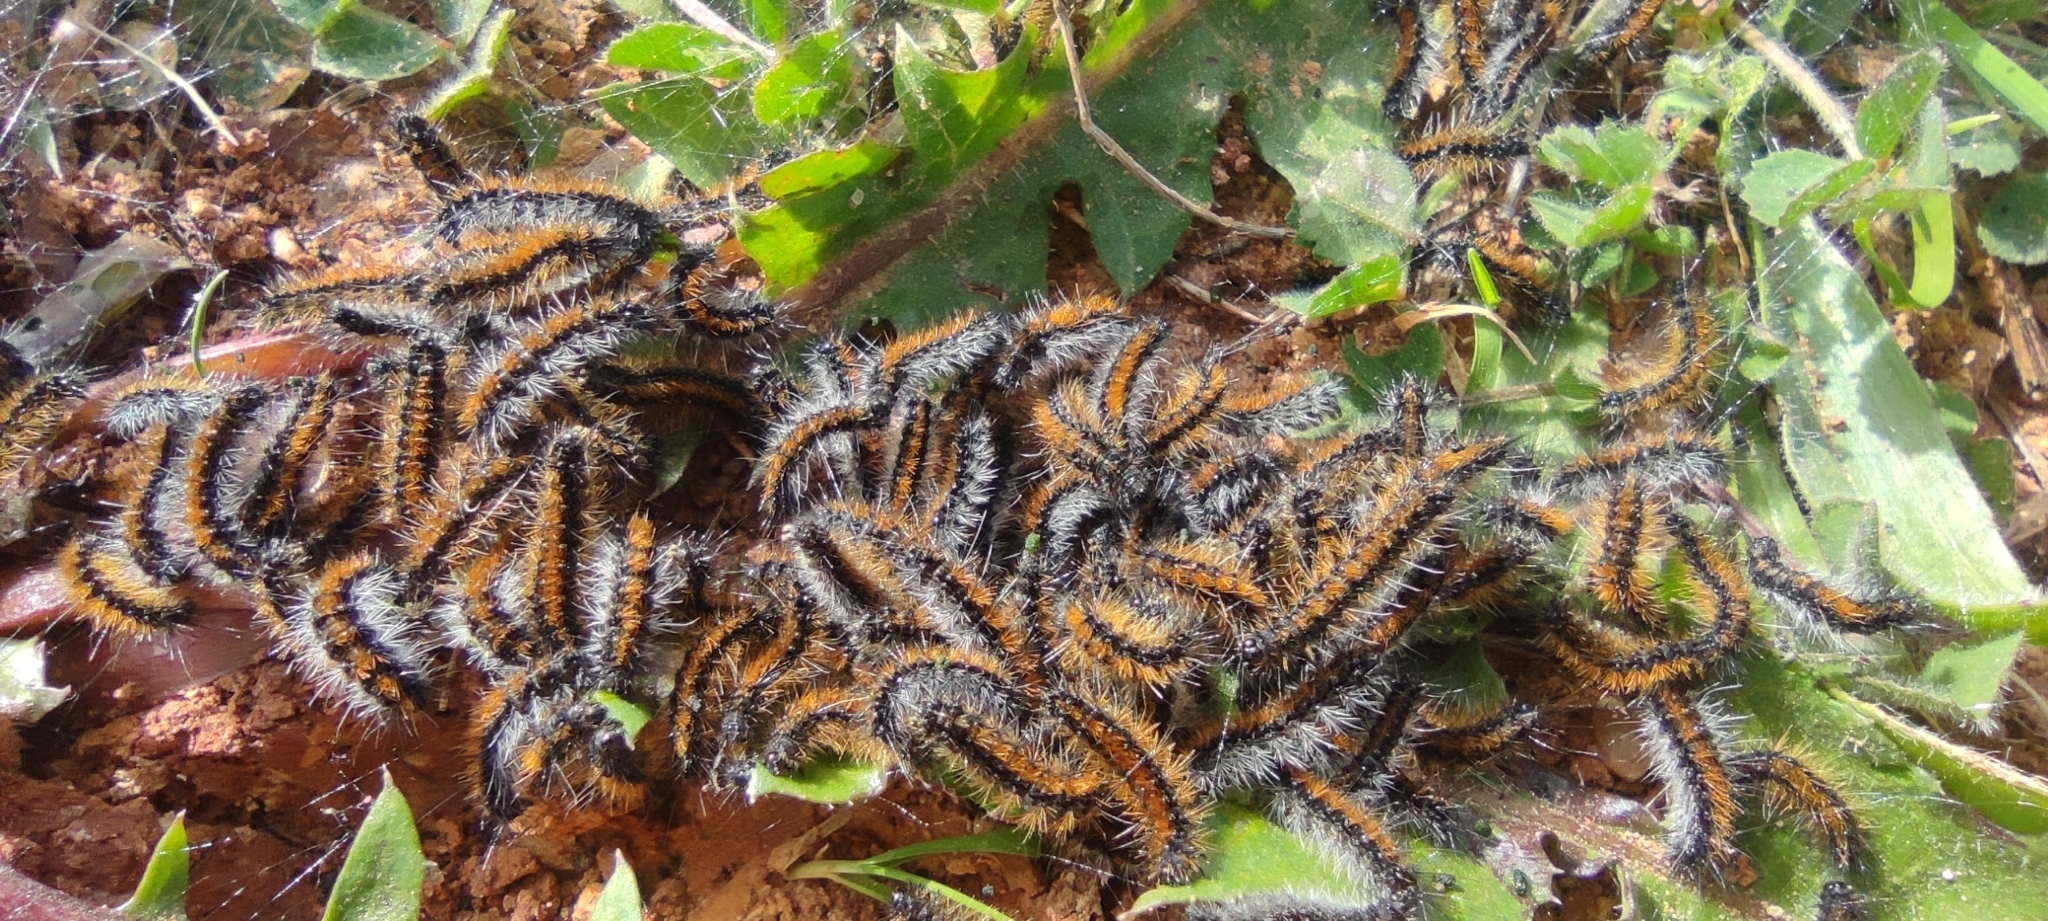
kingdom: Animalia
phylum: Arthropoda
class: Insecta
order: Lepidoptera
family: Erebidae
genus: Ocnogyna
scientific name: Ocnogyna boeticum
